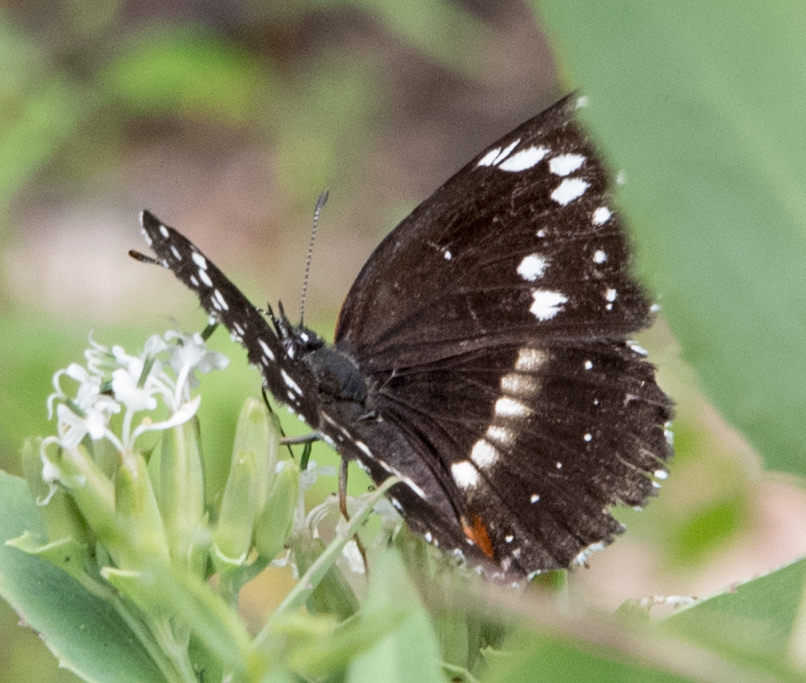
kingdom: Animalia
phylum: Arthropoda
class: Insecta
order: Lepidoptera
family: Nymphalidae
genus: Chlosyne
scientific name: Chlosyne lacinia
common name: Bordered patch
